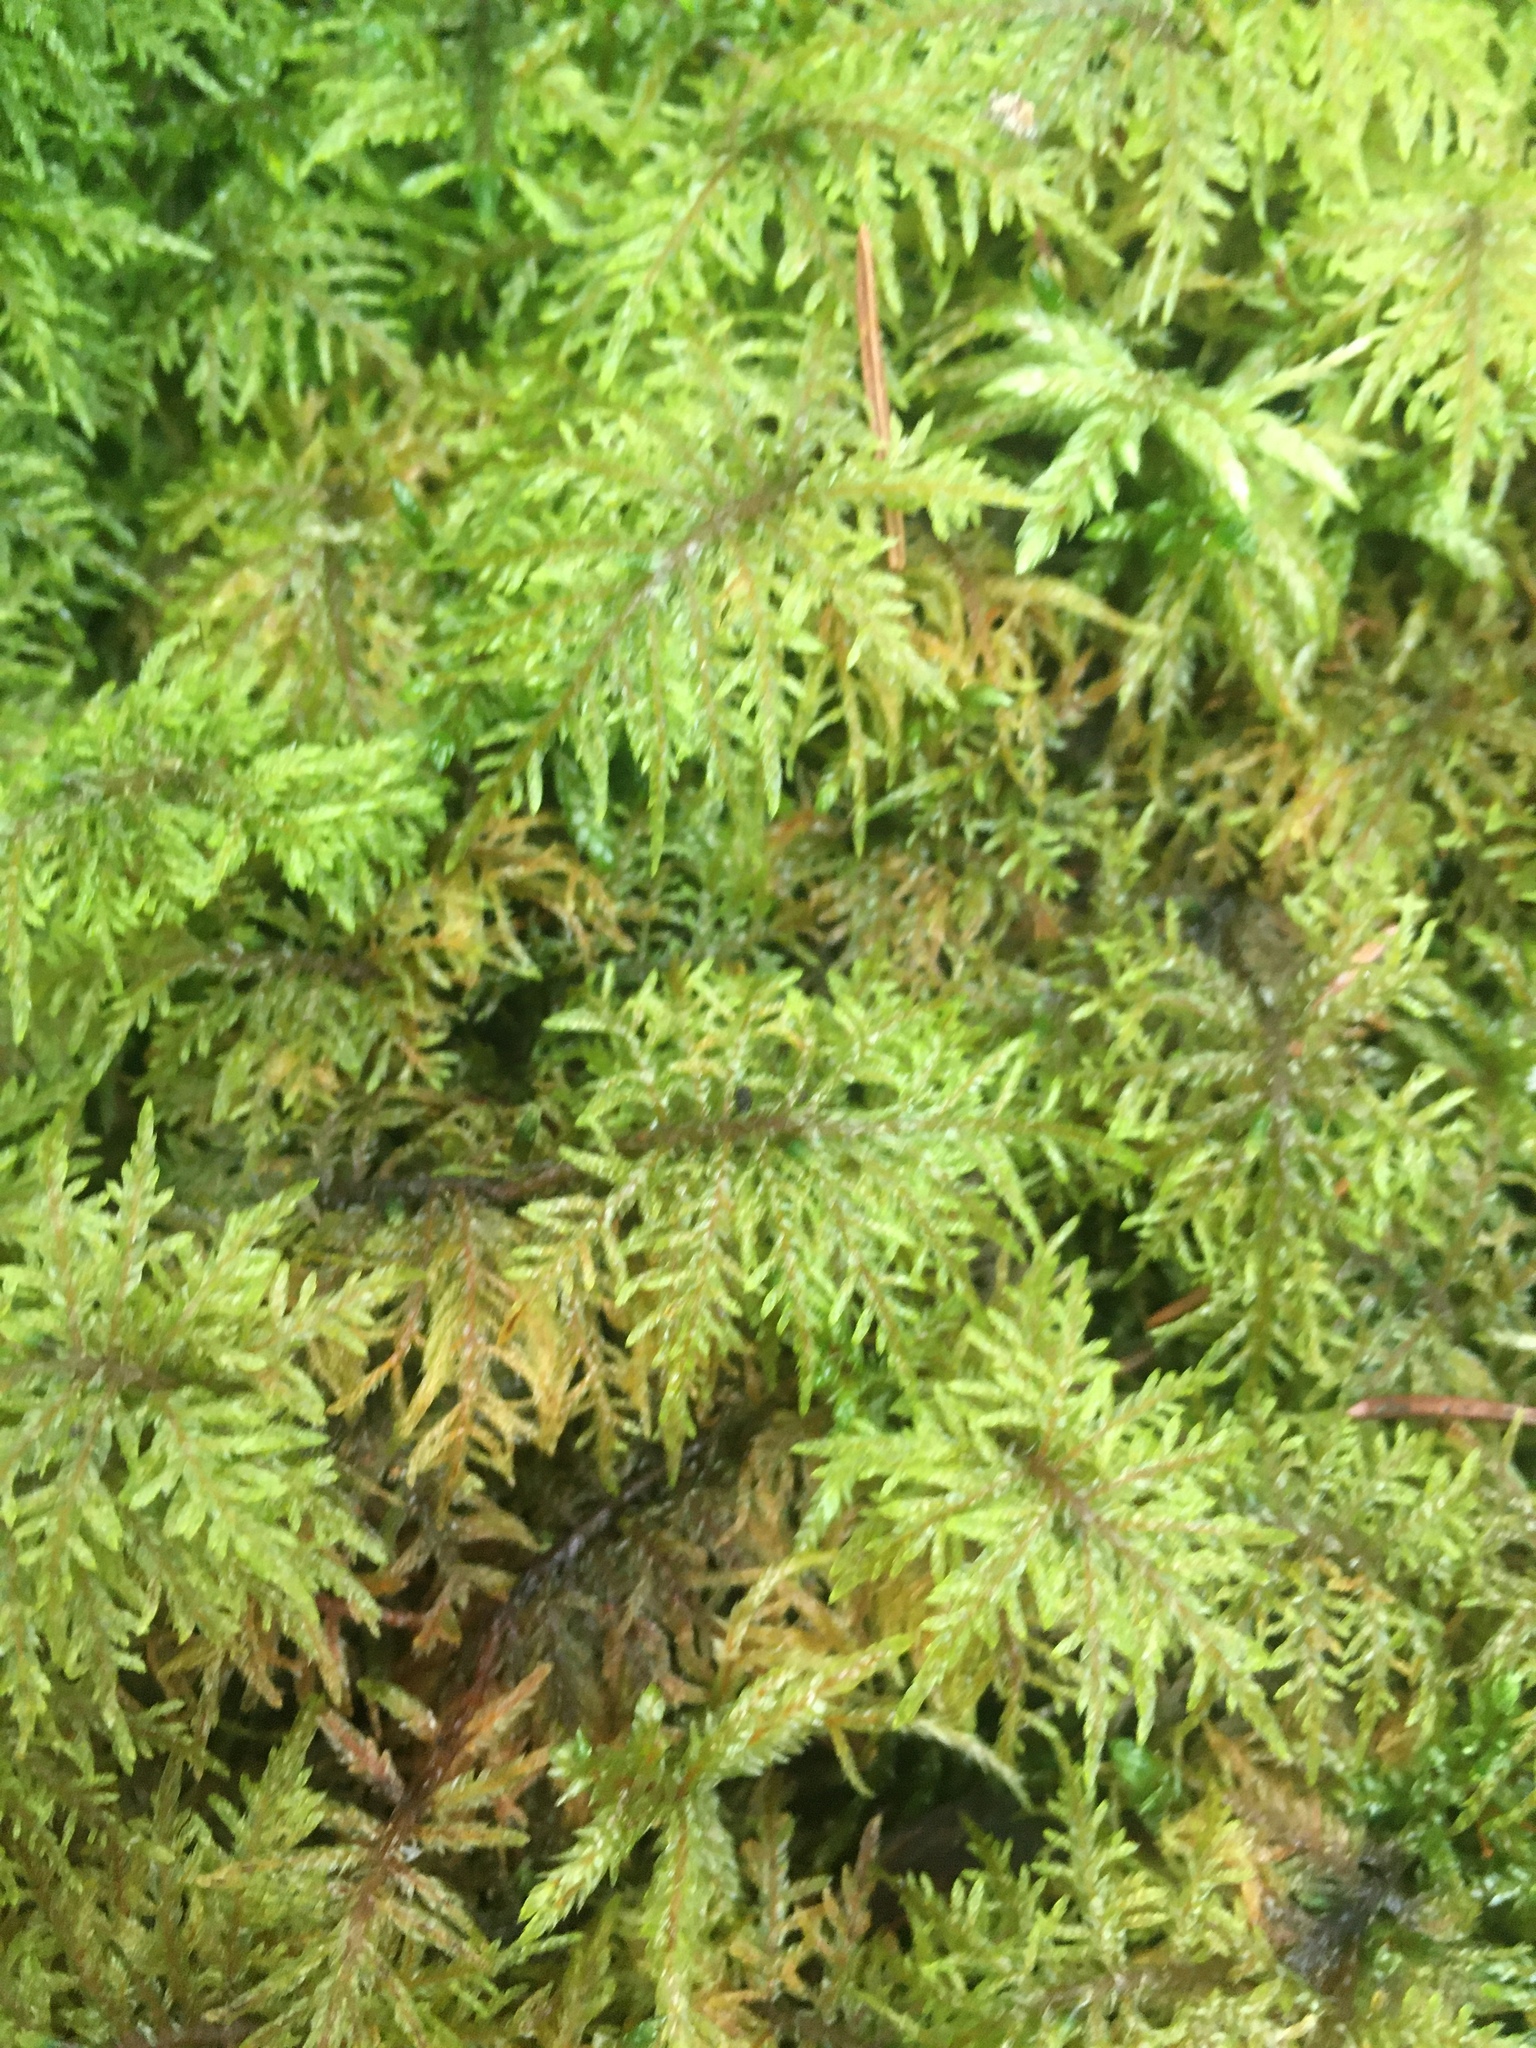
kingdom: Plantae
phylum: Bryophyta
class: Bryopsida
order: Hypnales
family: Hylocomiaceae
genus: Hylocomium
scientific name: Hylocomium splendens
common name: Stairstep moss
